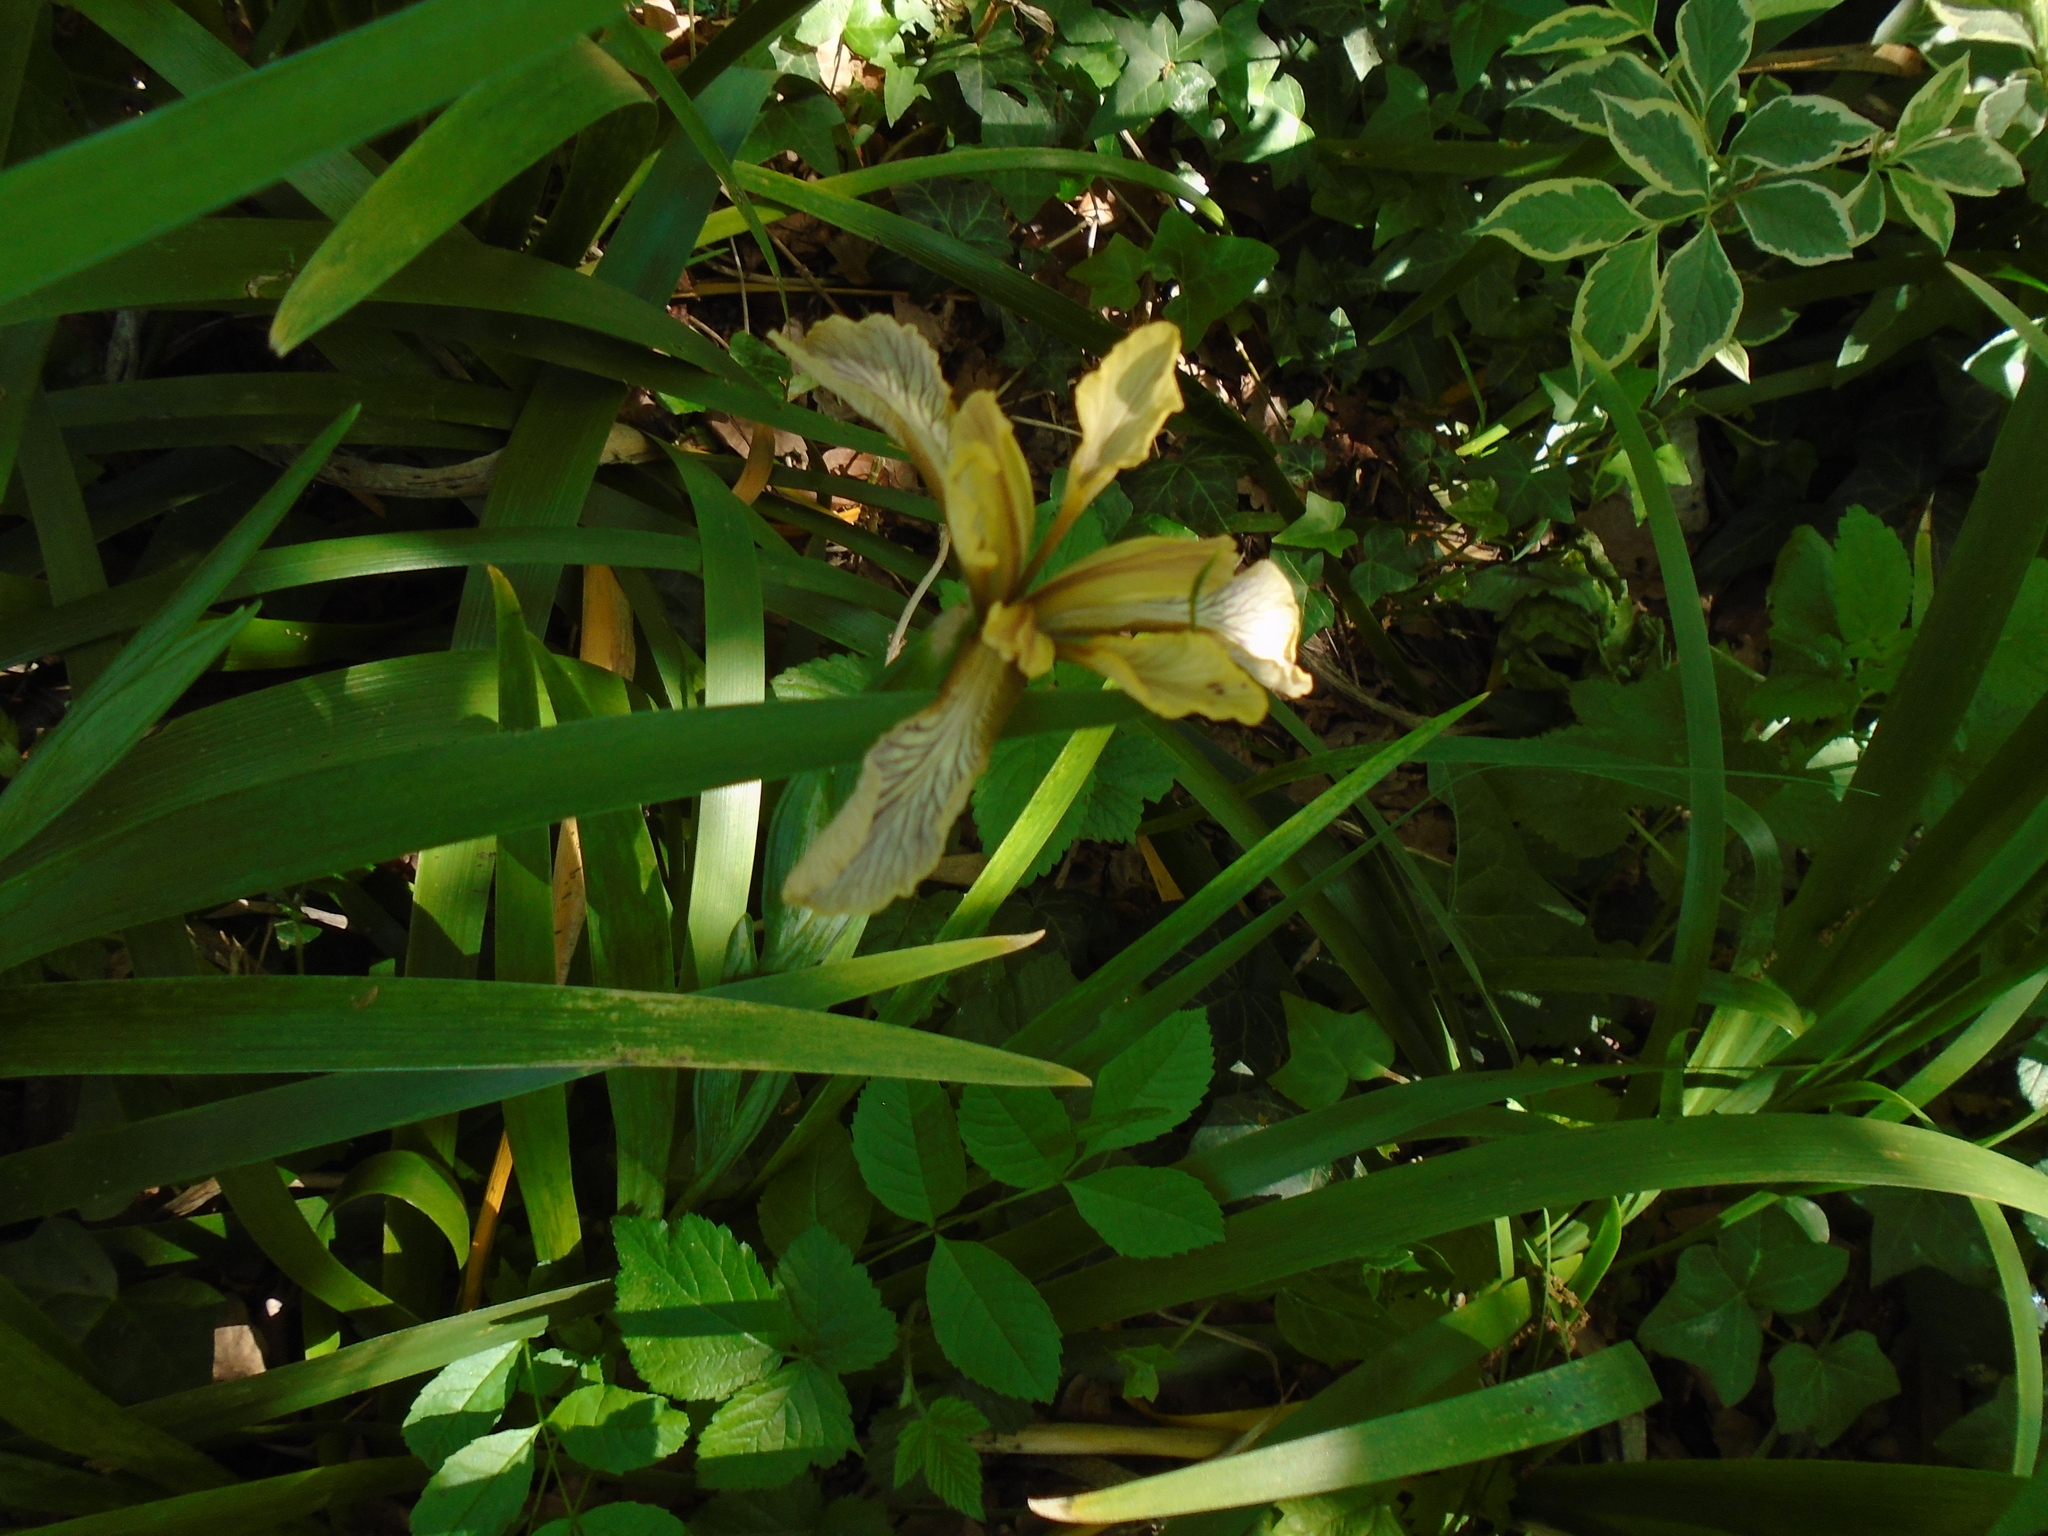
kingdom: Plantae
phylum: Tracheophyta
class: Liliopsida
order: Asparagales
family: Iridaceae
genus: Iris
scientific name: Iris foetidissima
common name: Stinking iris
